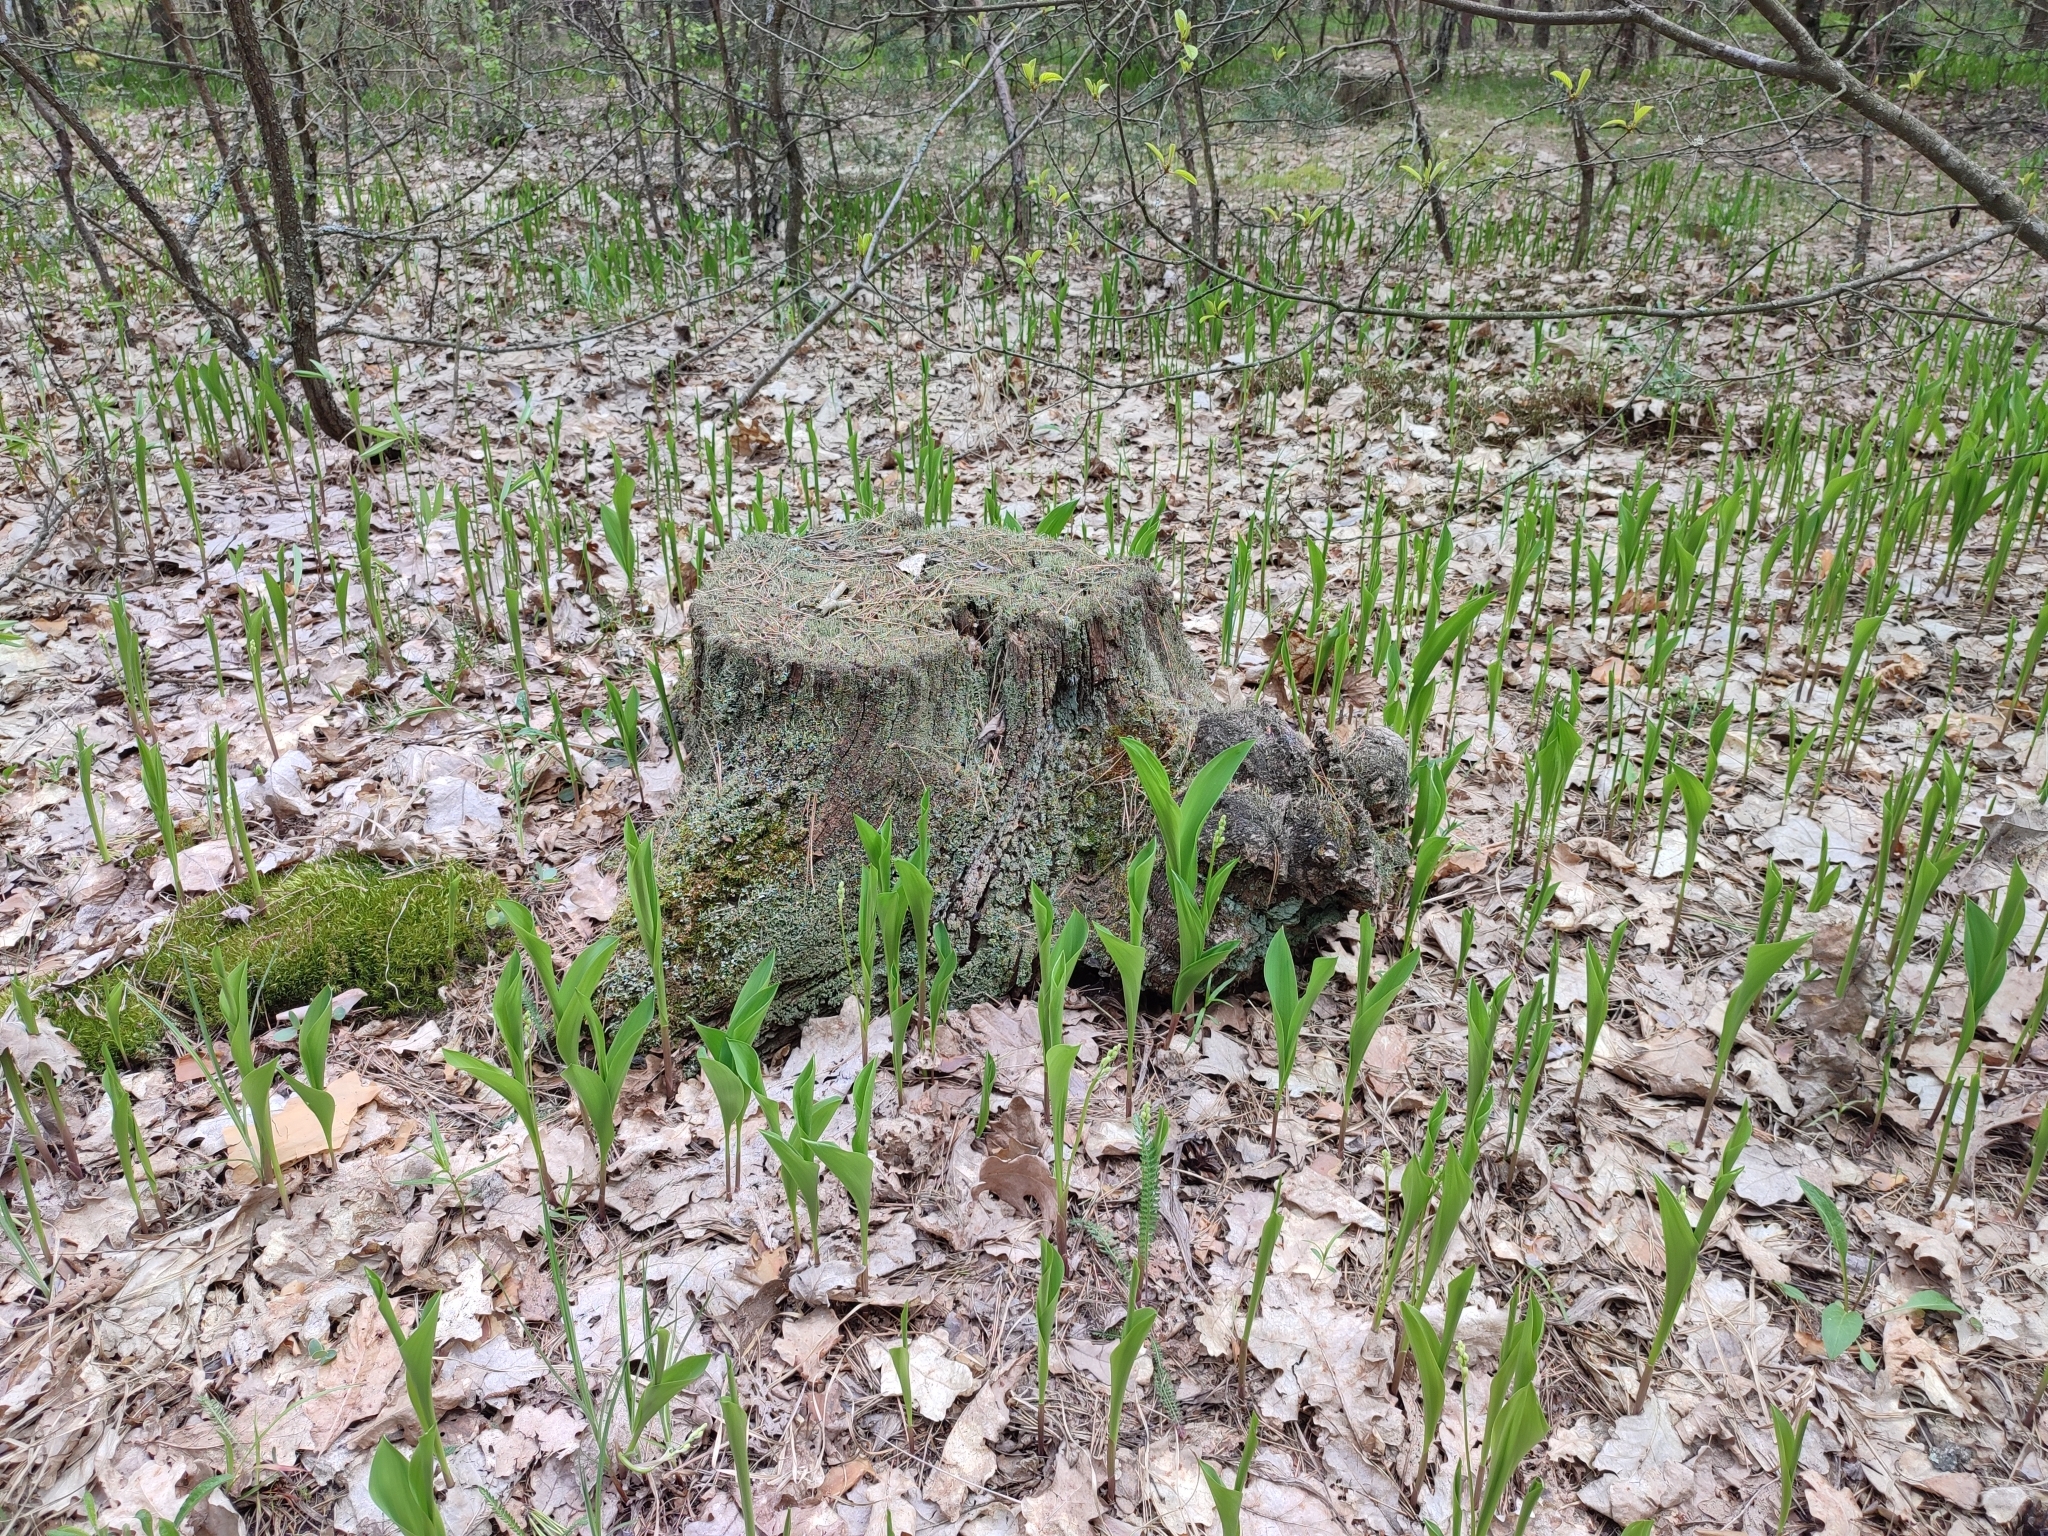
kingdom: Plantae
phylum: Tracheophyta
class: Liliopsida
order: Asparagales
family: Asparagaceae
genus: Convallaria
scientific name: Convallaria majalis
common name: Lily-of-the-valley
